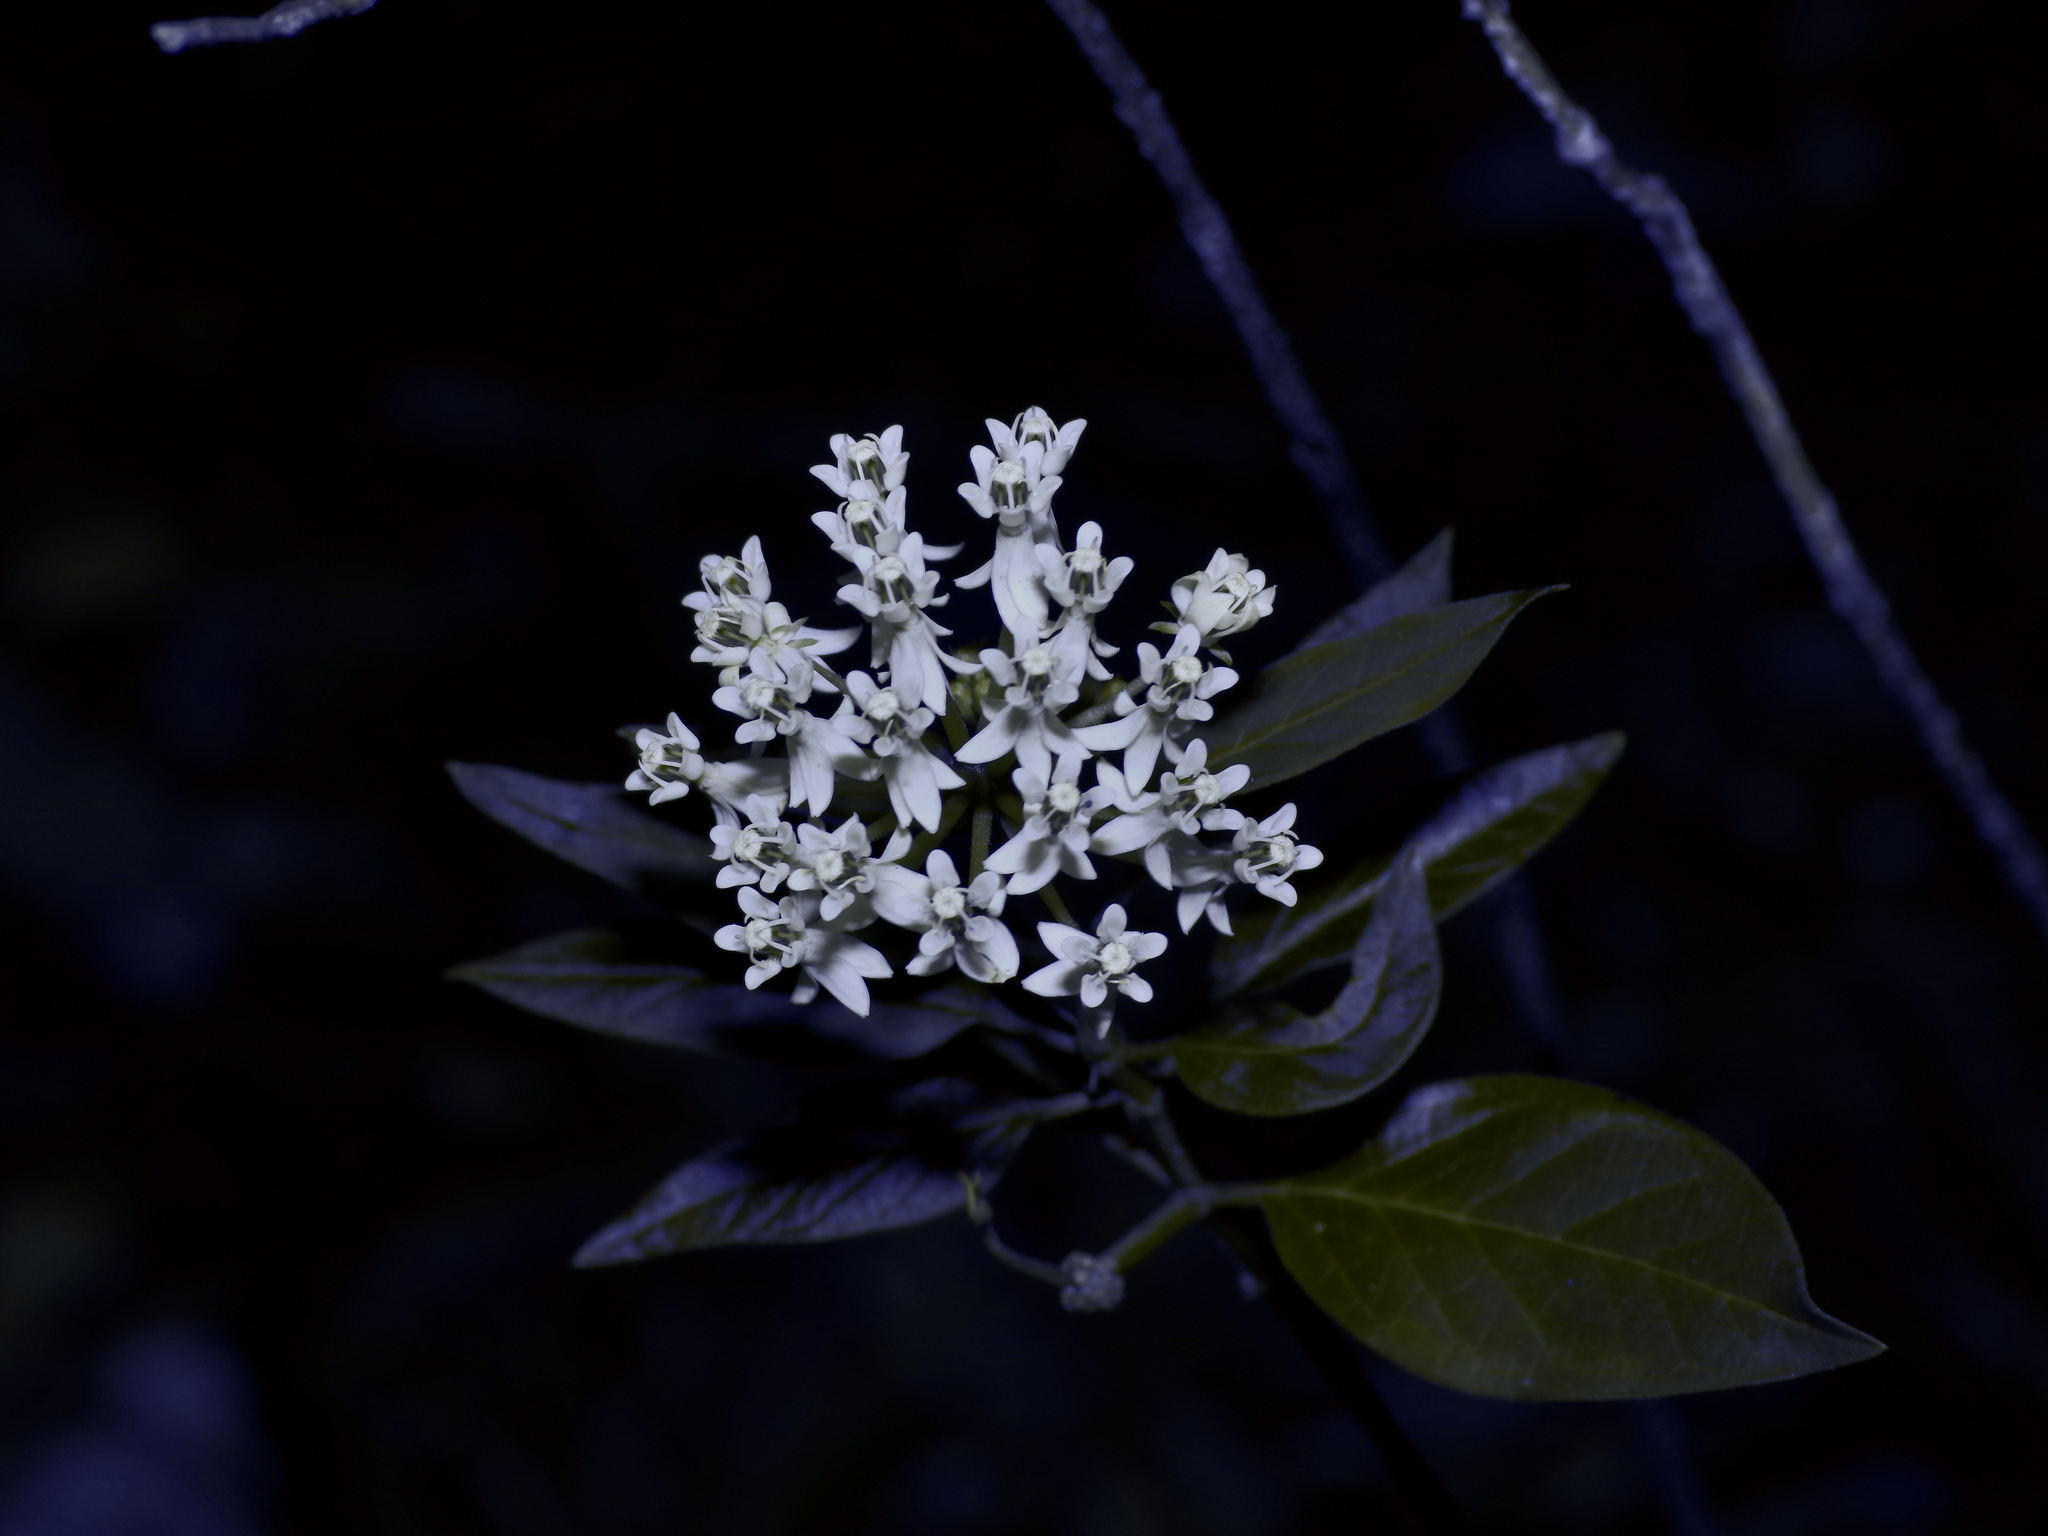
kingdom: Plantae
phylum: Tracheophyta
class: Magnoliopsida
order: Gentianales
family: Apocynaceae
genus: Asclepias
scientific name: Asclepias texana
